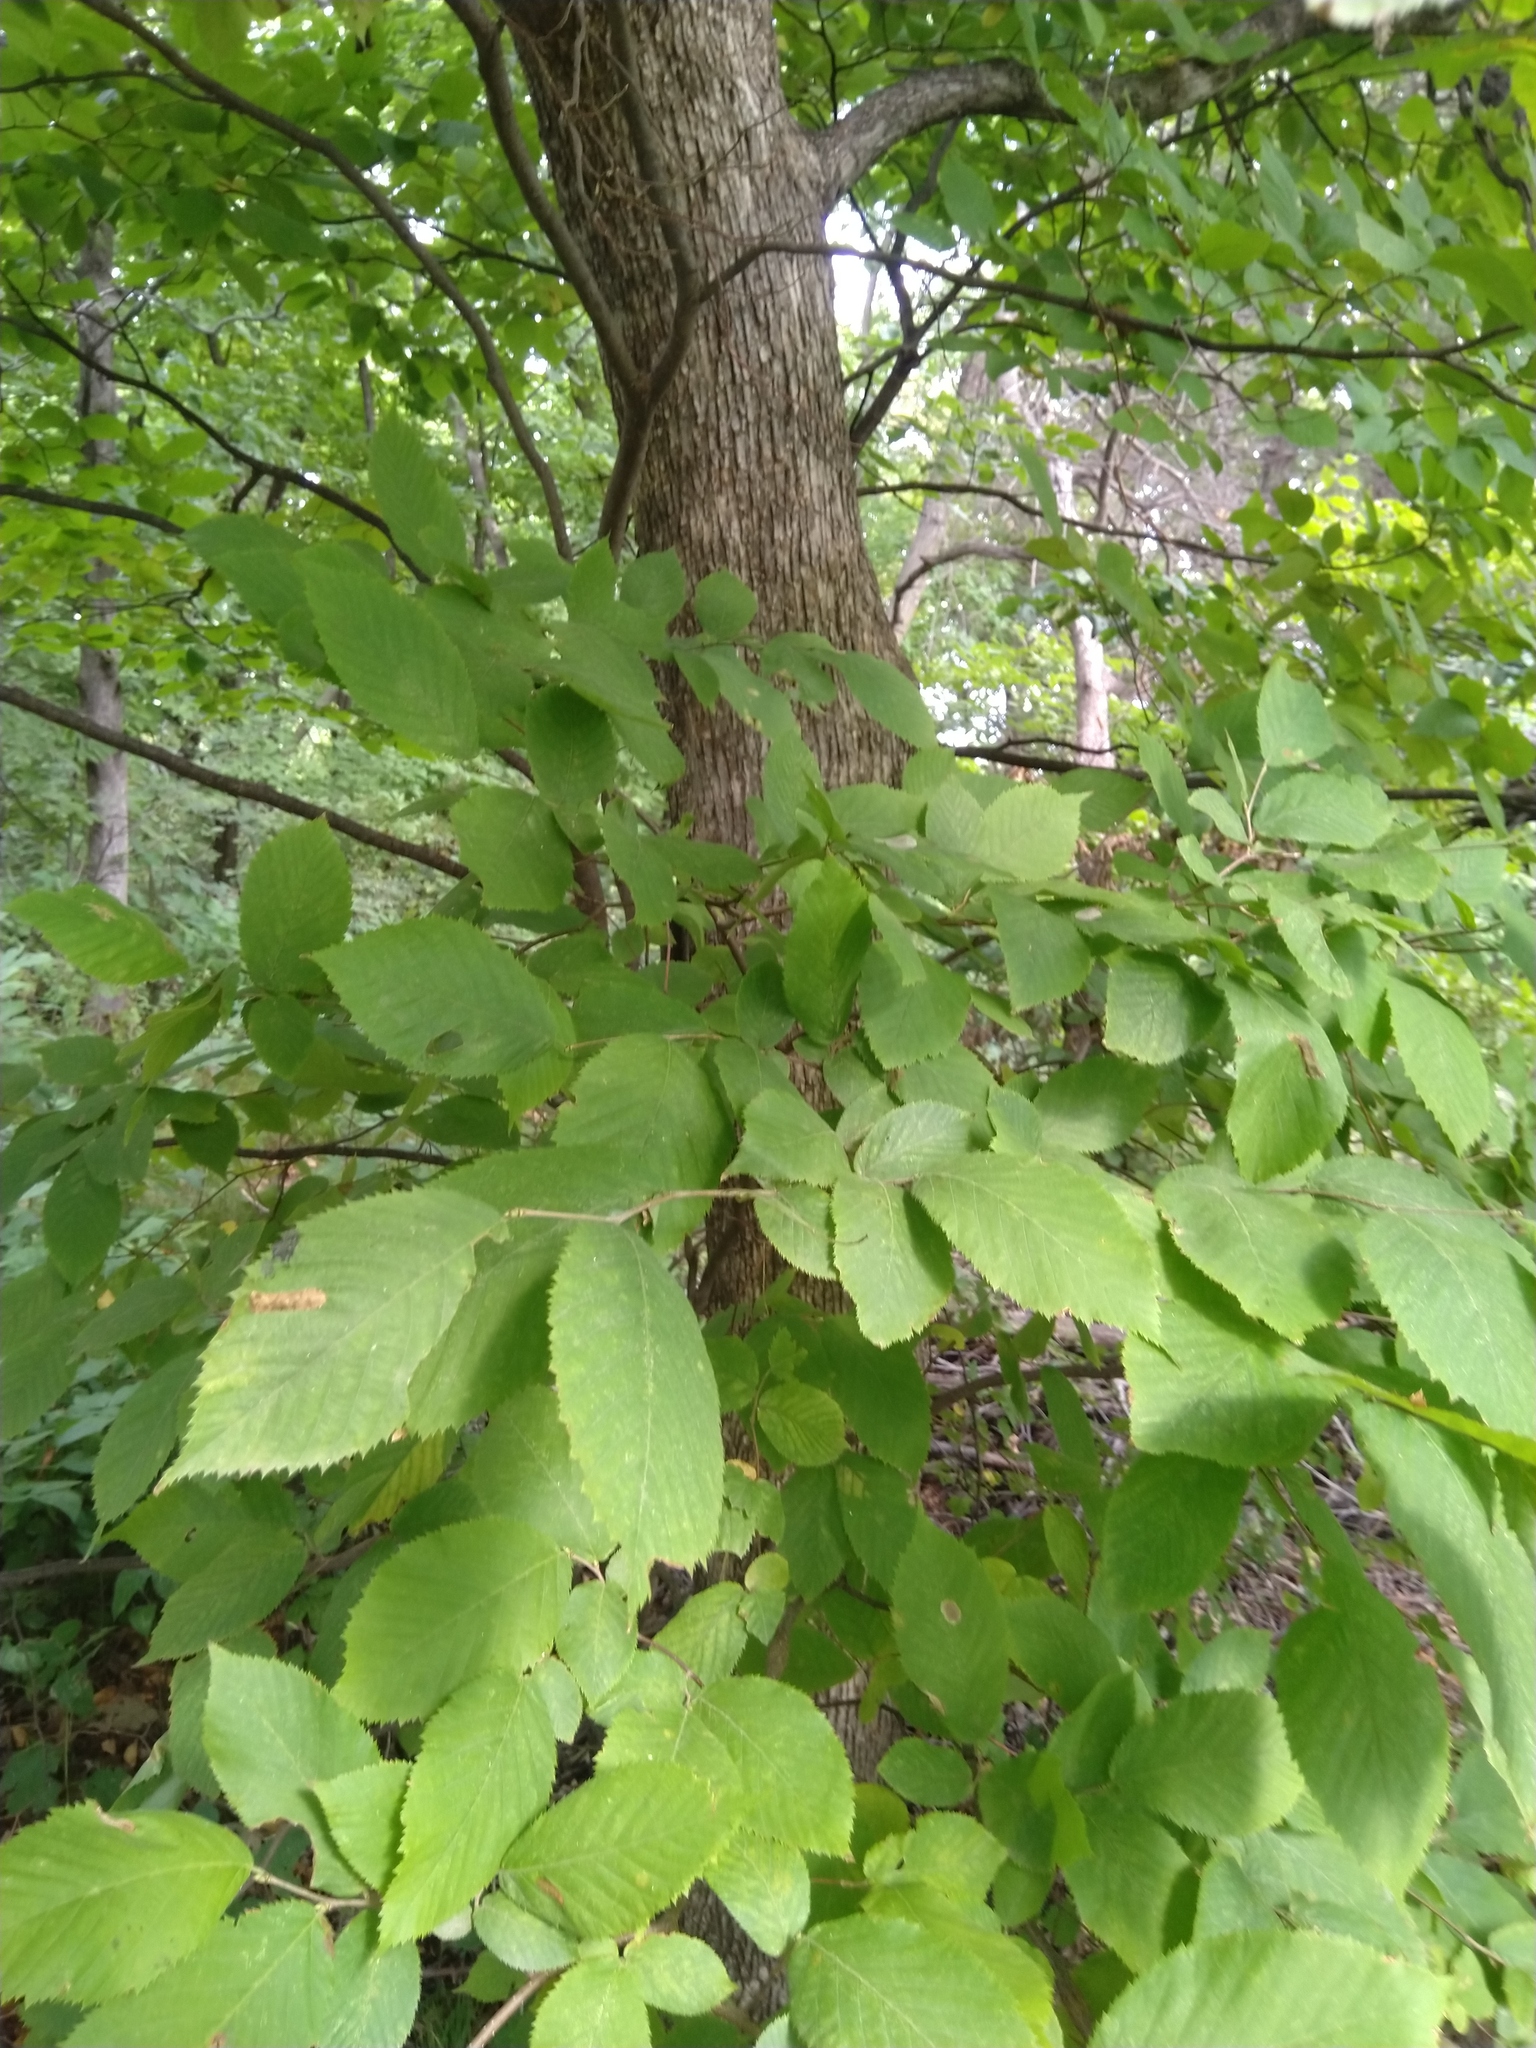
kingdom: Plantae
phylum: Tracheophyta
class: Magnoliopsida
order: Fagales
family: Betulaceae
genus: Ostrya
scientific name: Ostrya virginiana
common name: Ironwood
